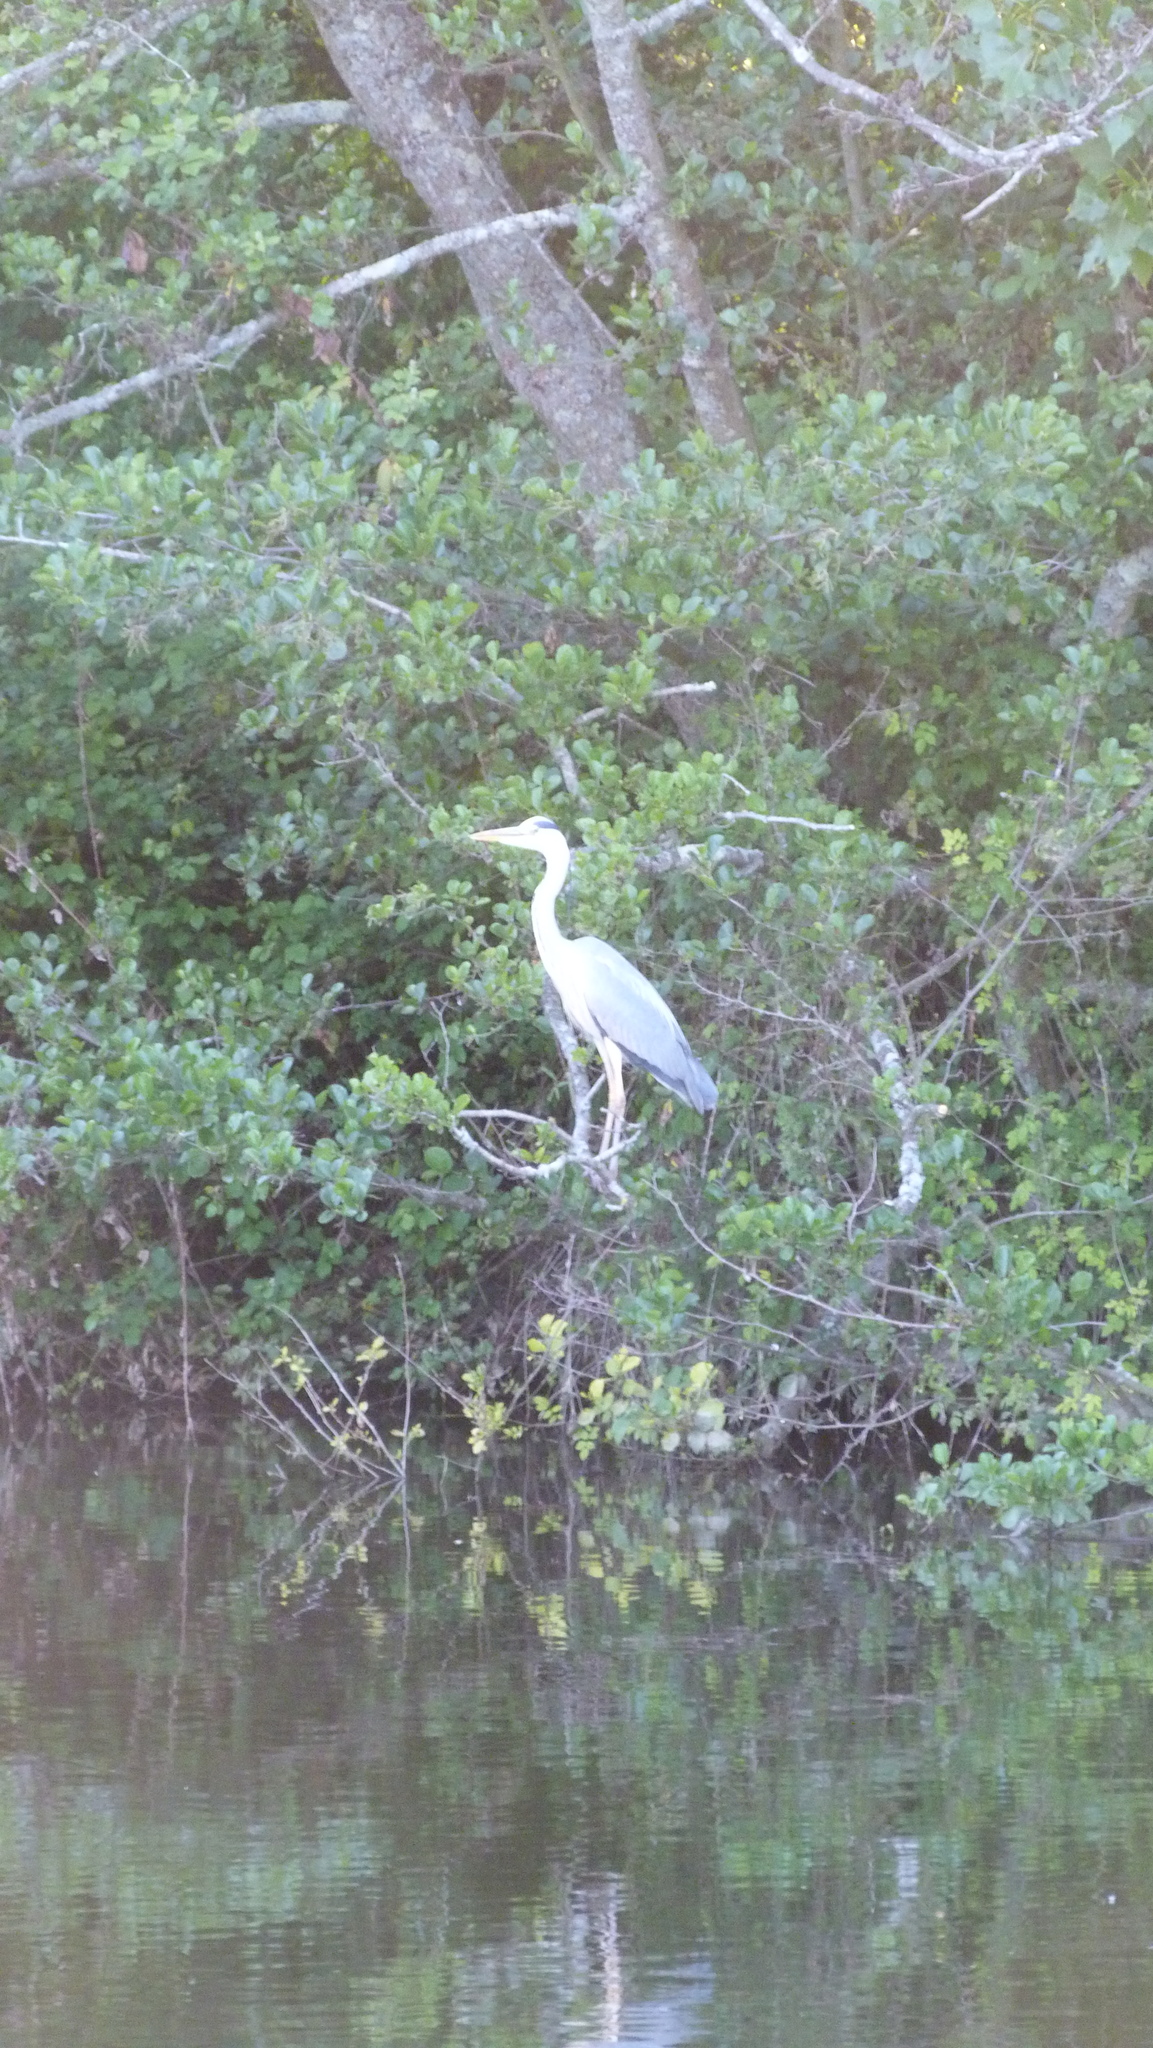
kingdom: Animalia
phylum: Chordata
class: Aves
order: Pelecaniformes
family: Ardeidae
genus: Ardea
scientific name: Ardea cinerea
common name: Grey heron
